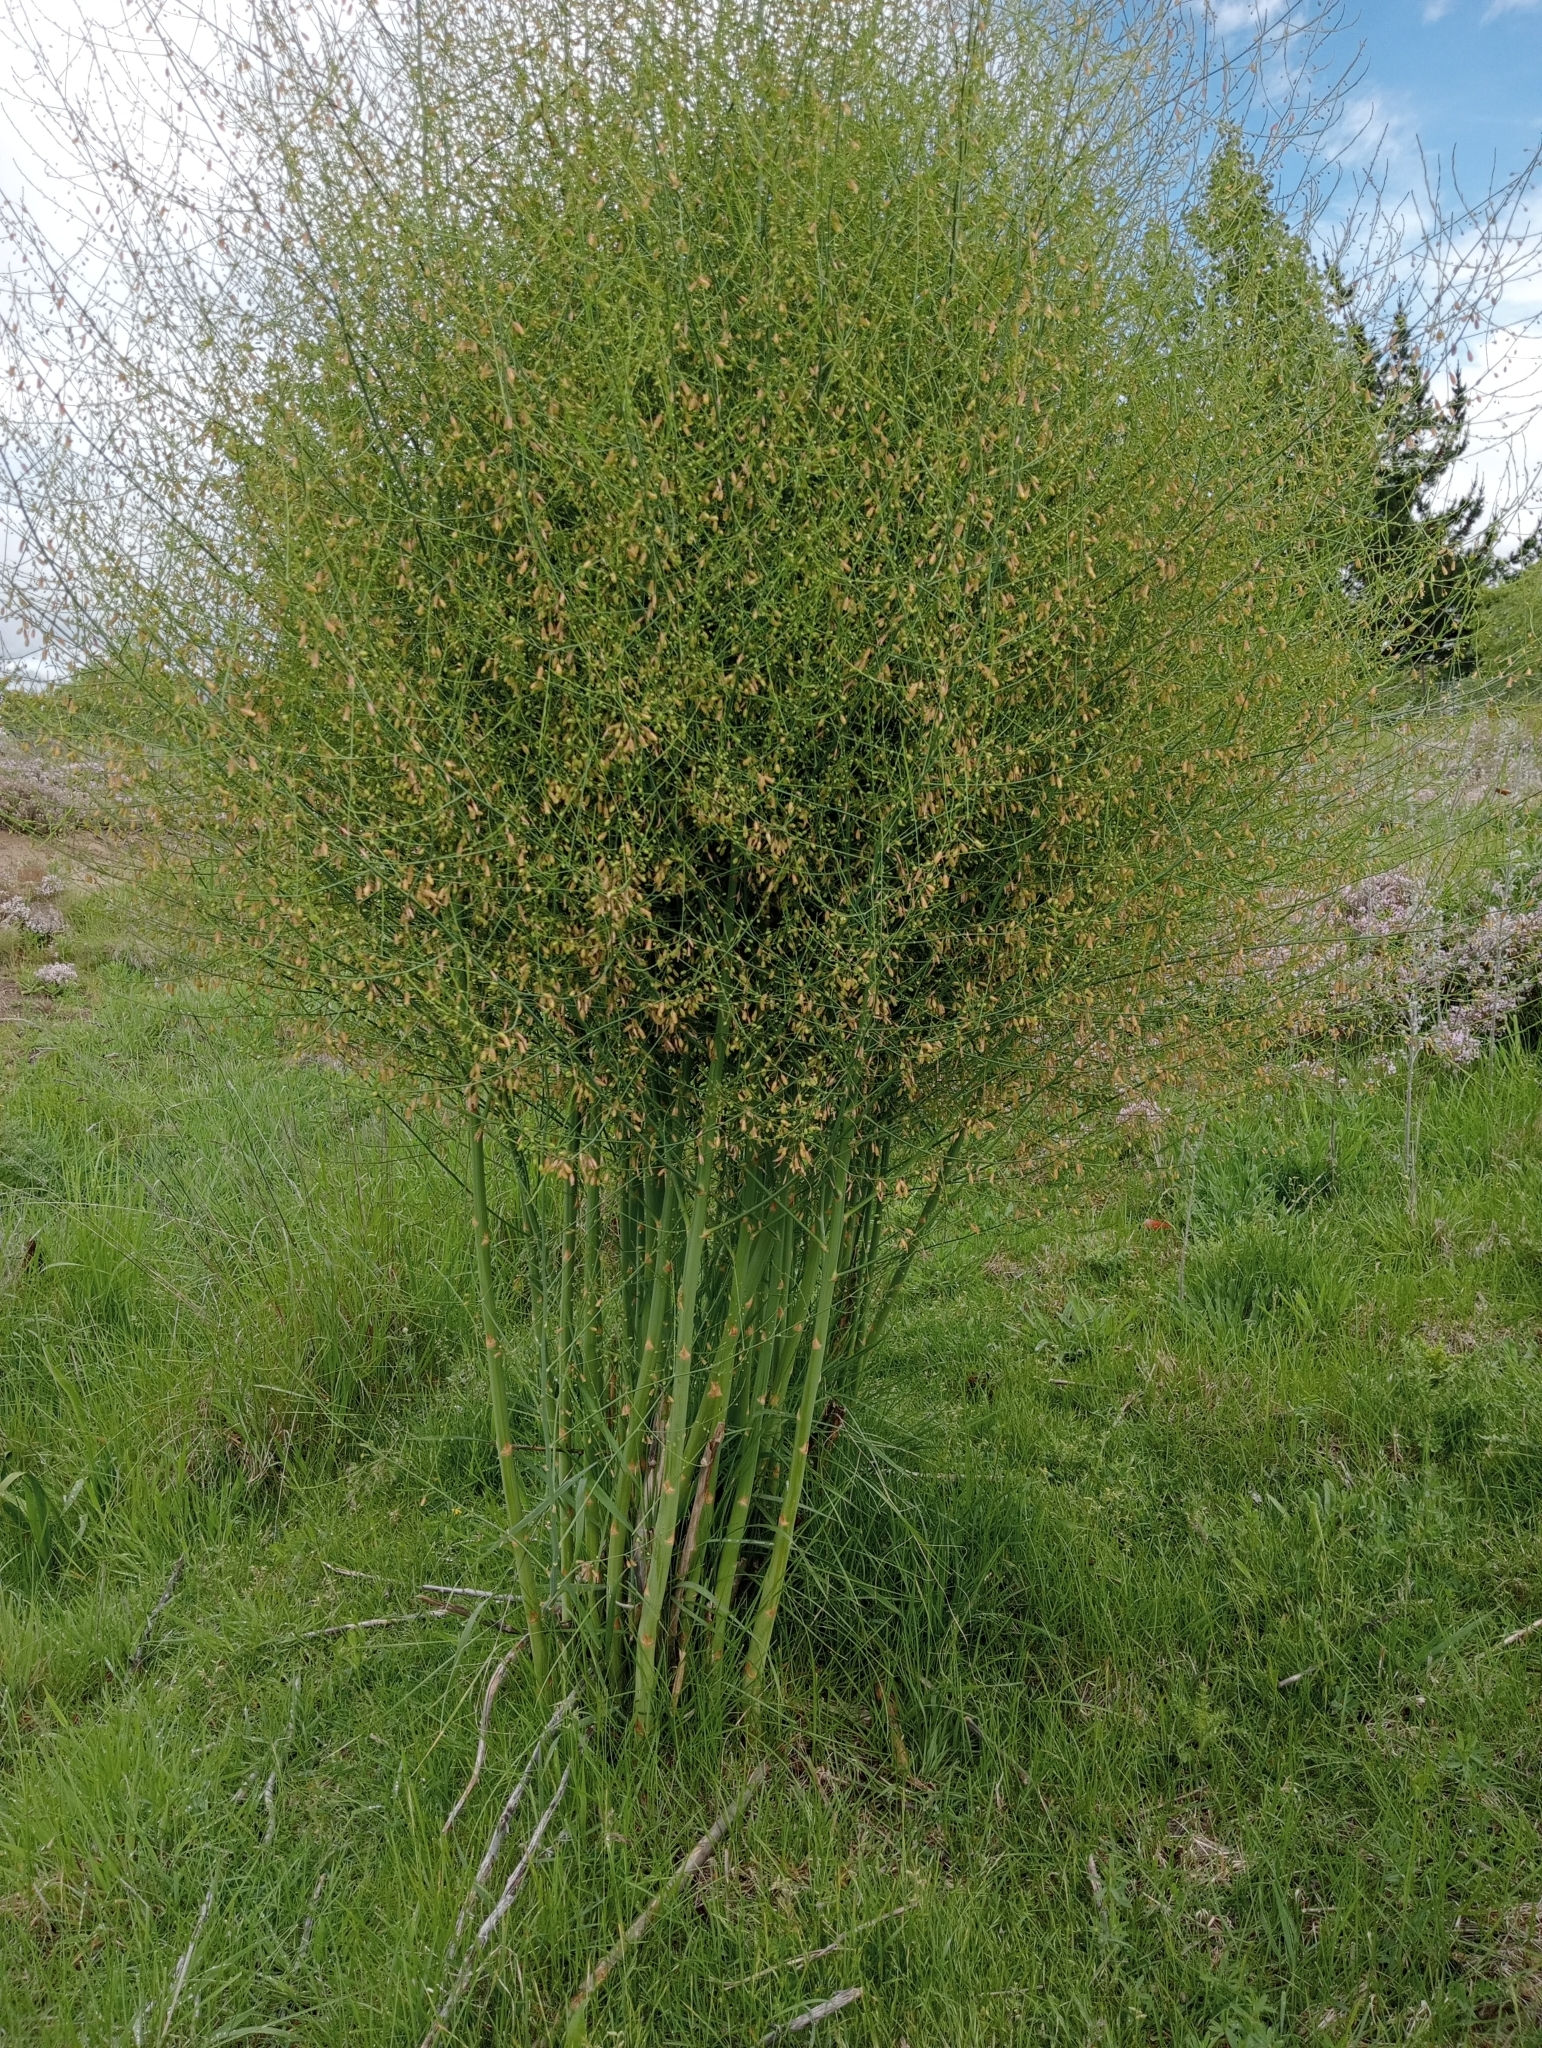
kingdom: Plantae
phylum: Tracheophyta
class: Liliopsida
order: Asparagales
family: Asparagaceae
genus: Asparagus
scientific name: Asparagus officinalis
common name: Garden asparagus
